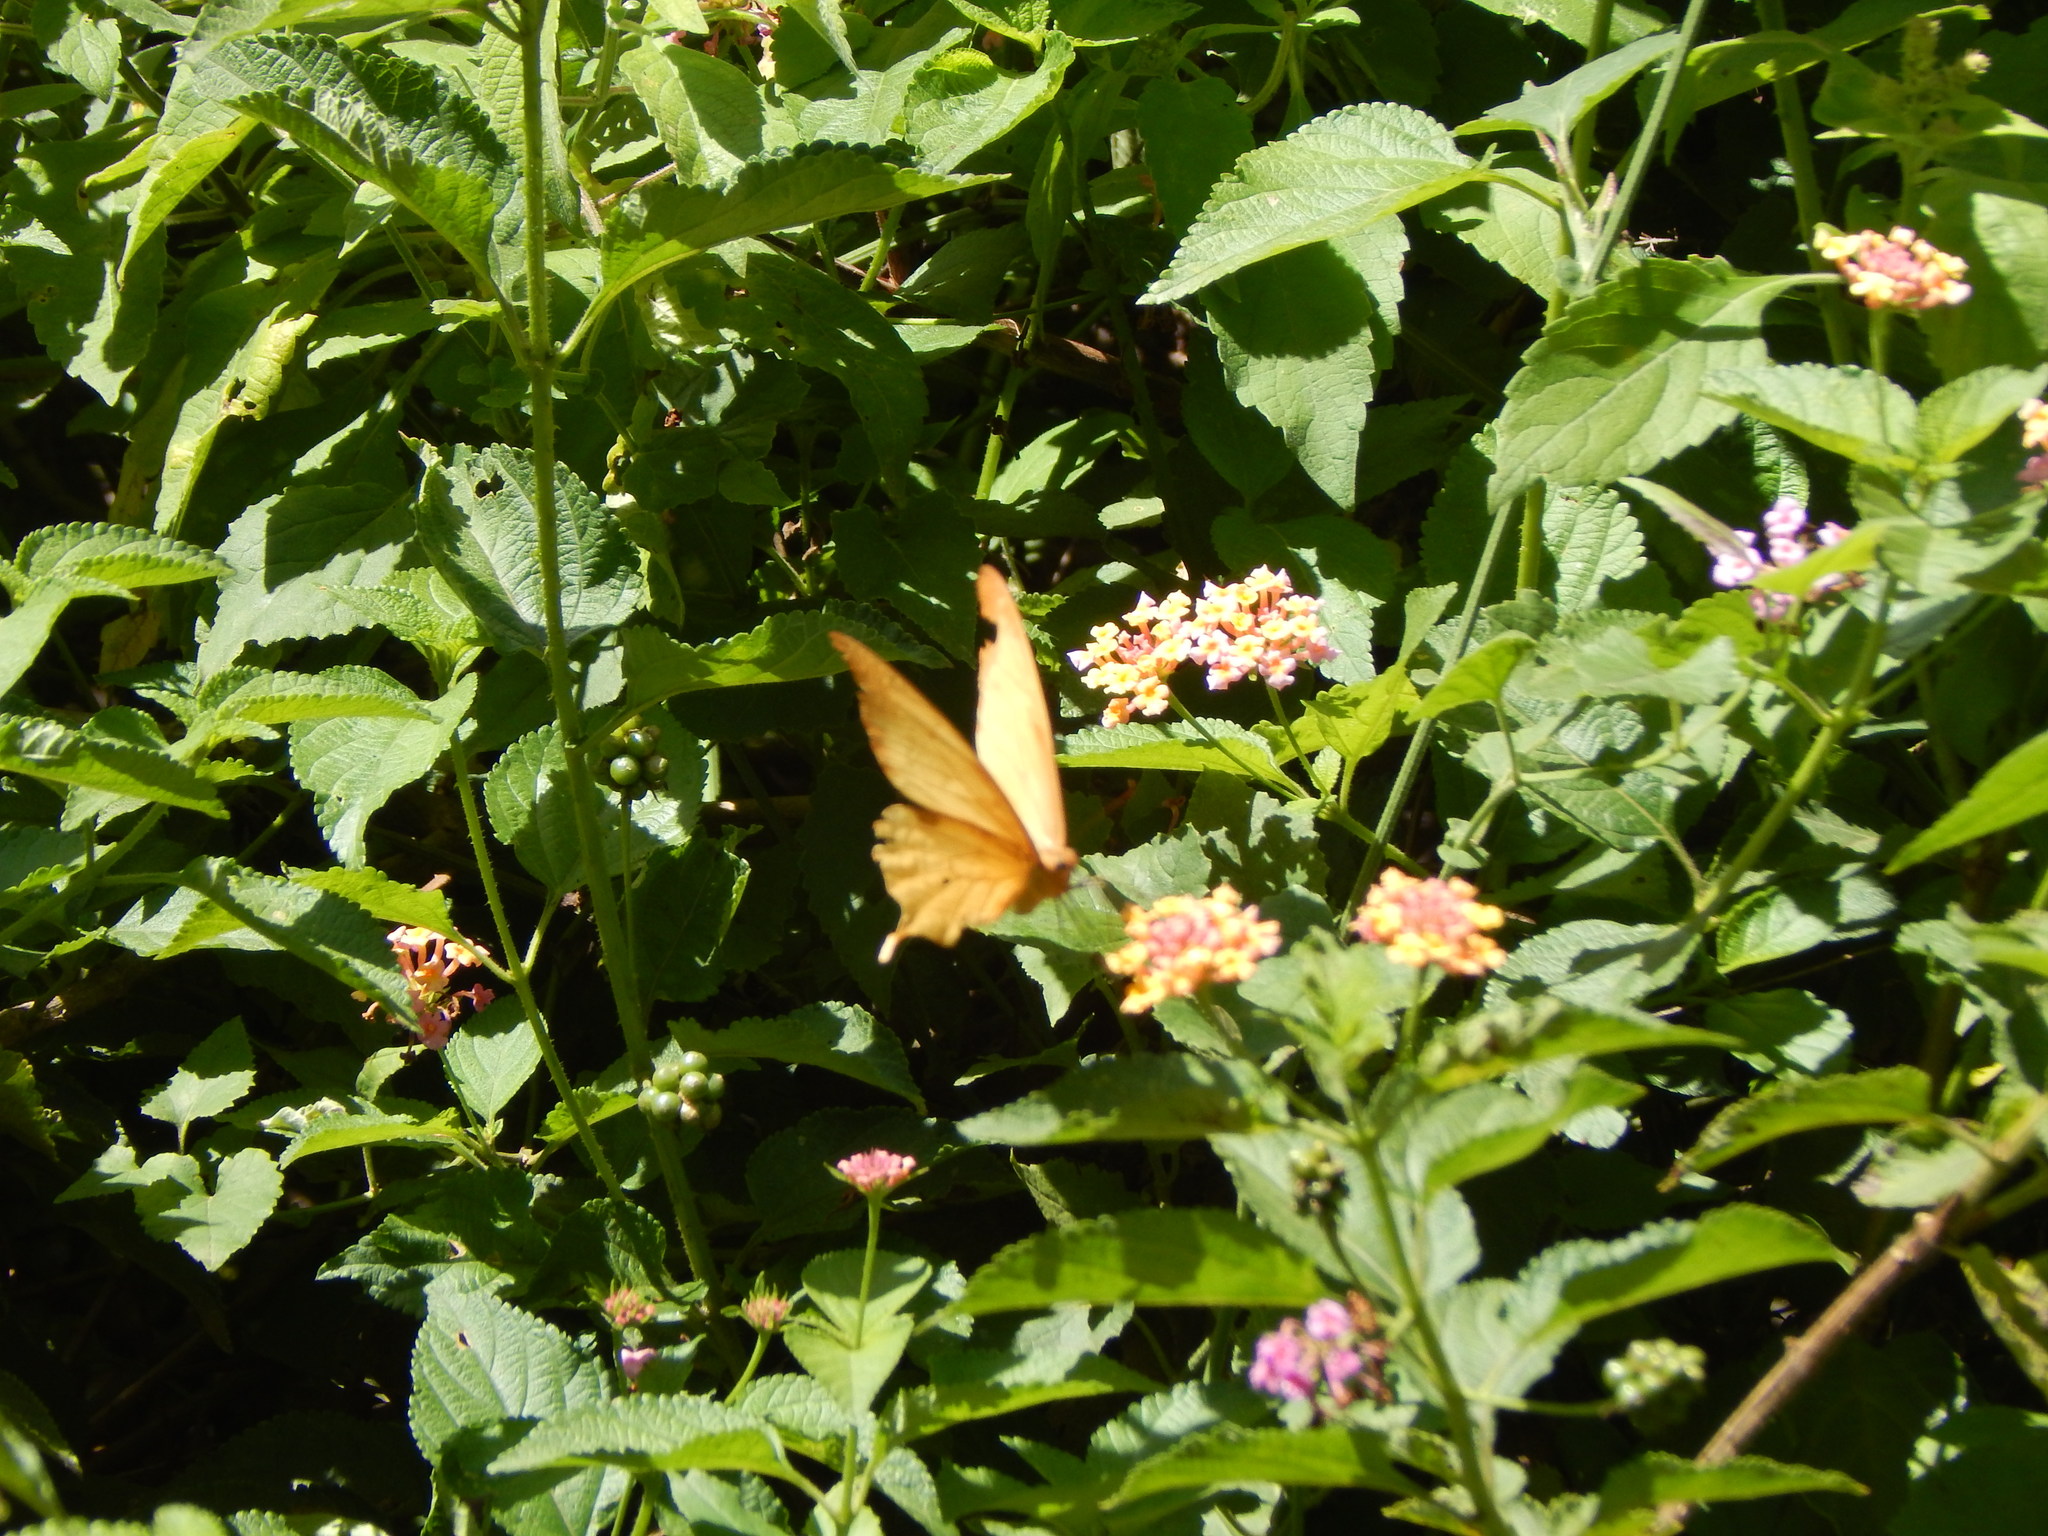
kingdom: Animalia
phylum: Arthropoda
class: Insecta
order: Lepidoptera
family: Papilionidae
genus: Papilio
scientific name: Papilio nobilis
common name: Noble swallowtail
